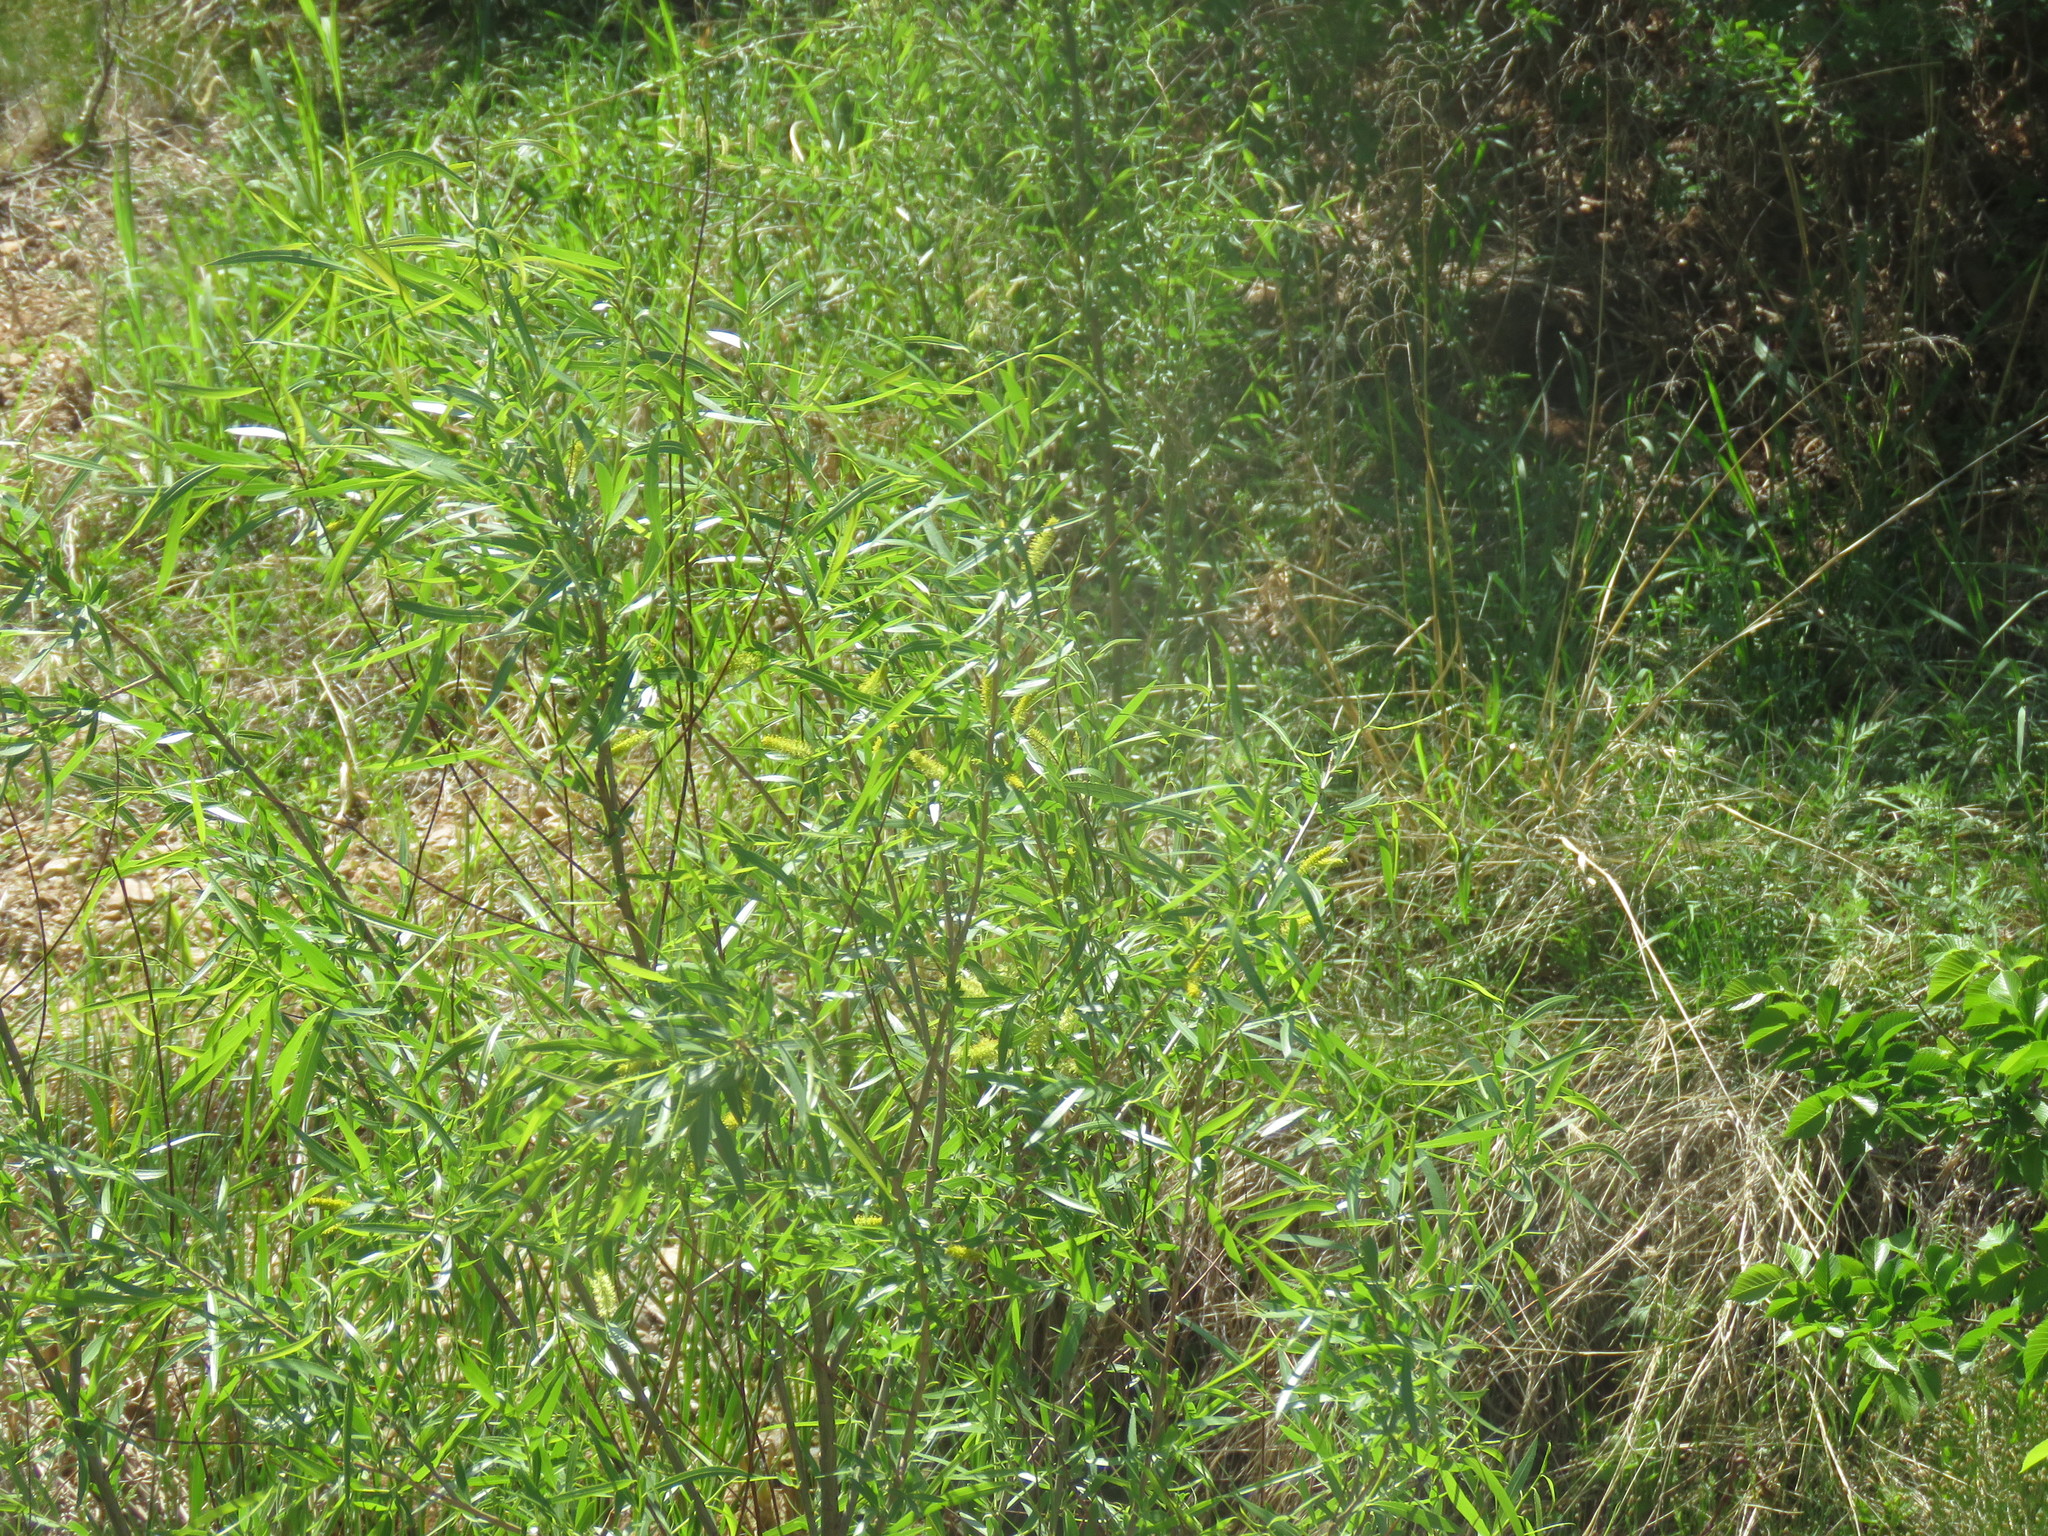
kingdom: Plantae
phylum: Tracheophyta
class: Magnoliopsida
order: Malpighiales
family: Salicaceae
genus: Salix
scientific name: Salix interior
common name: Sandbar willow
